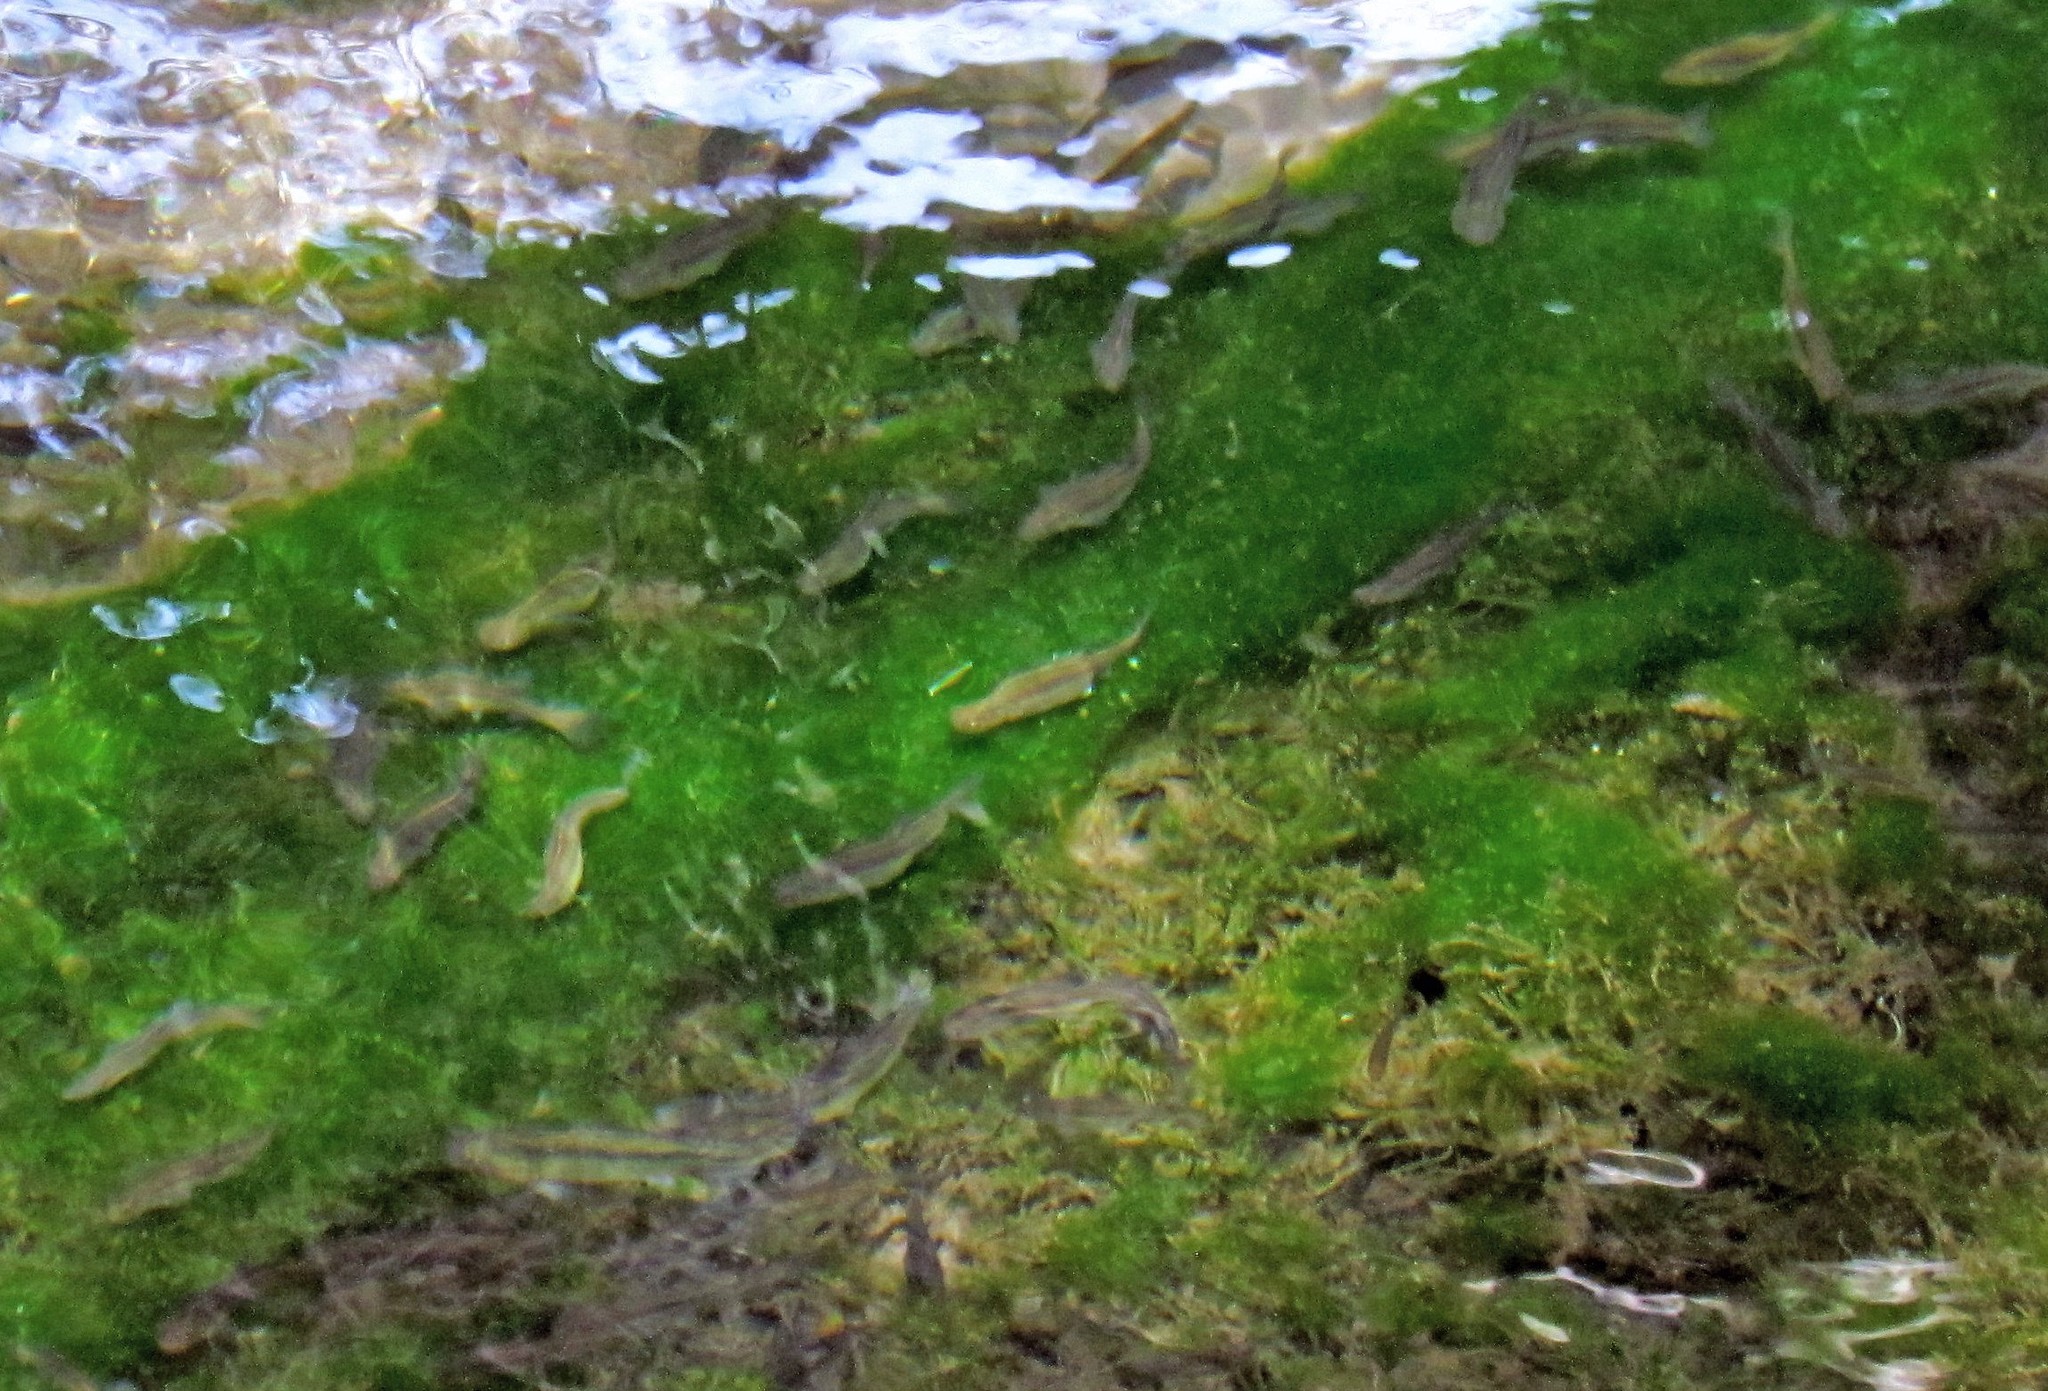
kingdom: Animalia
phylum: Chordata
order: Characiformes
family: Characidae
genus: Gymnocharacinus
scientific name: Gymnocharacinus bergii
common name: Naked characin
